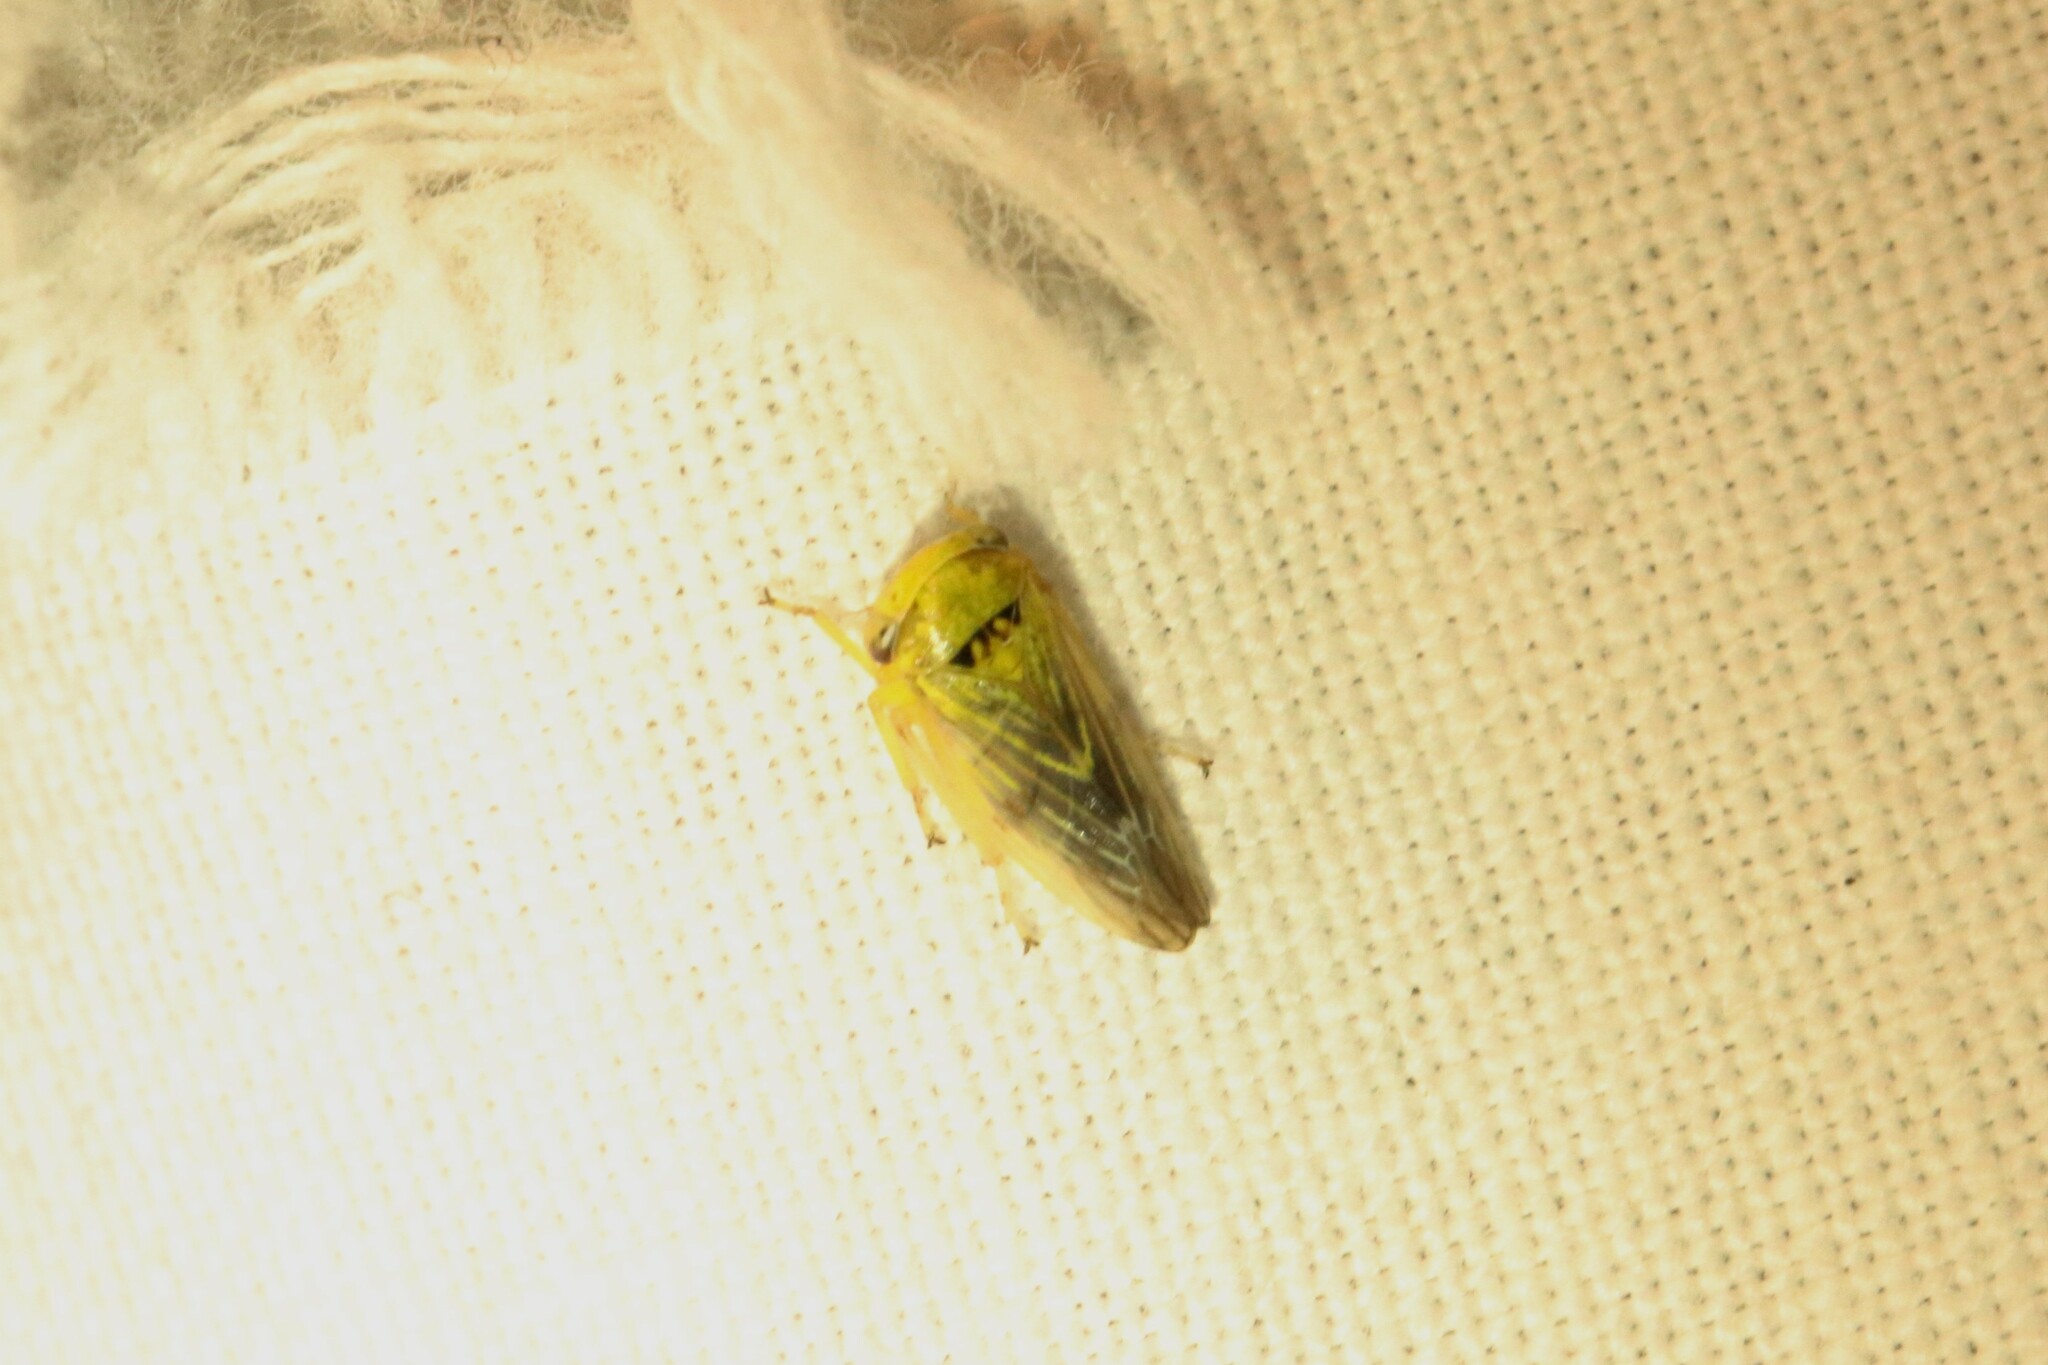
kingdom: Animalia
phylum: Arthropoda
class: Insecta
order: Hemiptera
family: Cicadellidae
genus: Rhytidodus
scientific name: Rhytidodus decimusquartus
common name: Leafhopper
